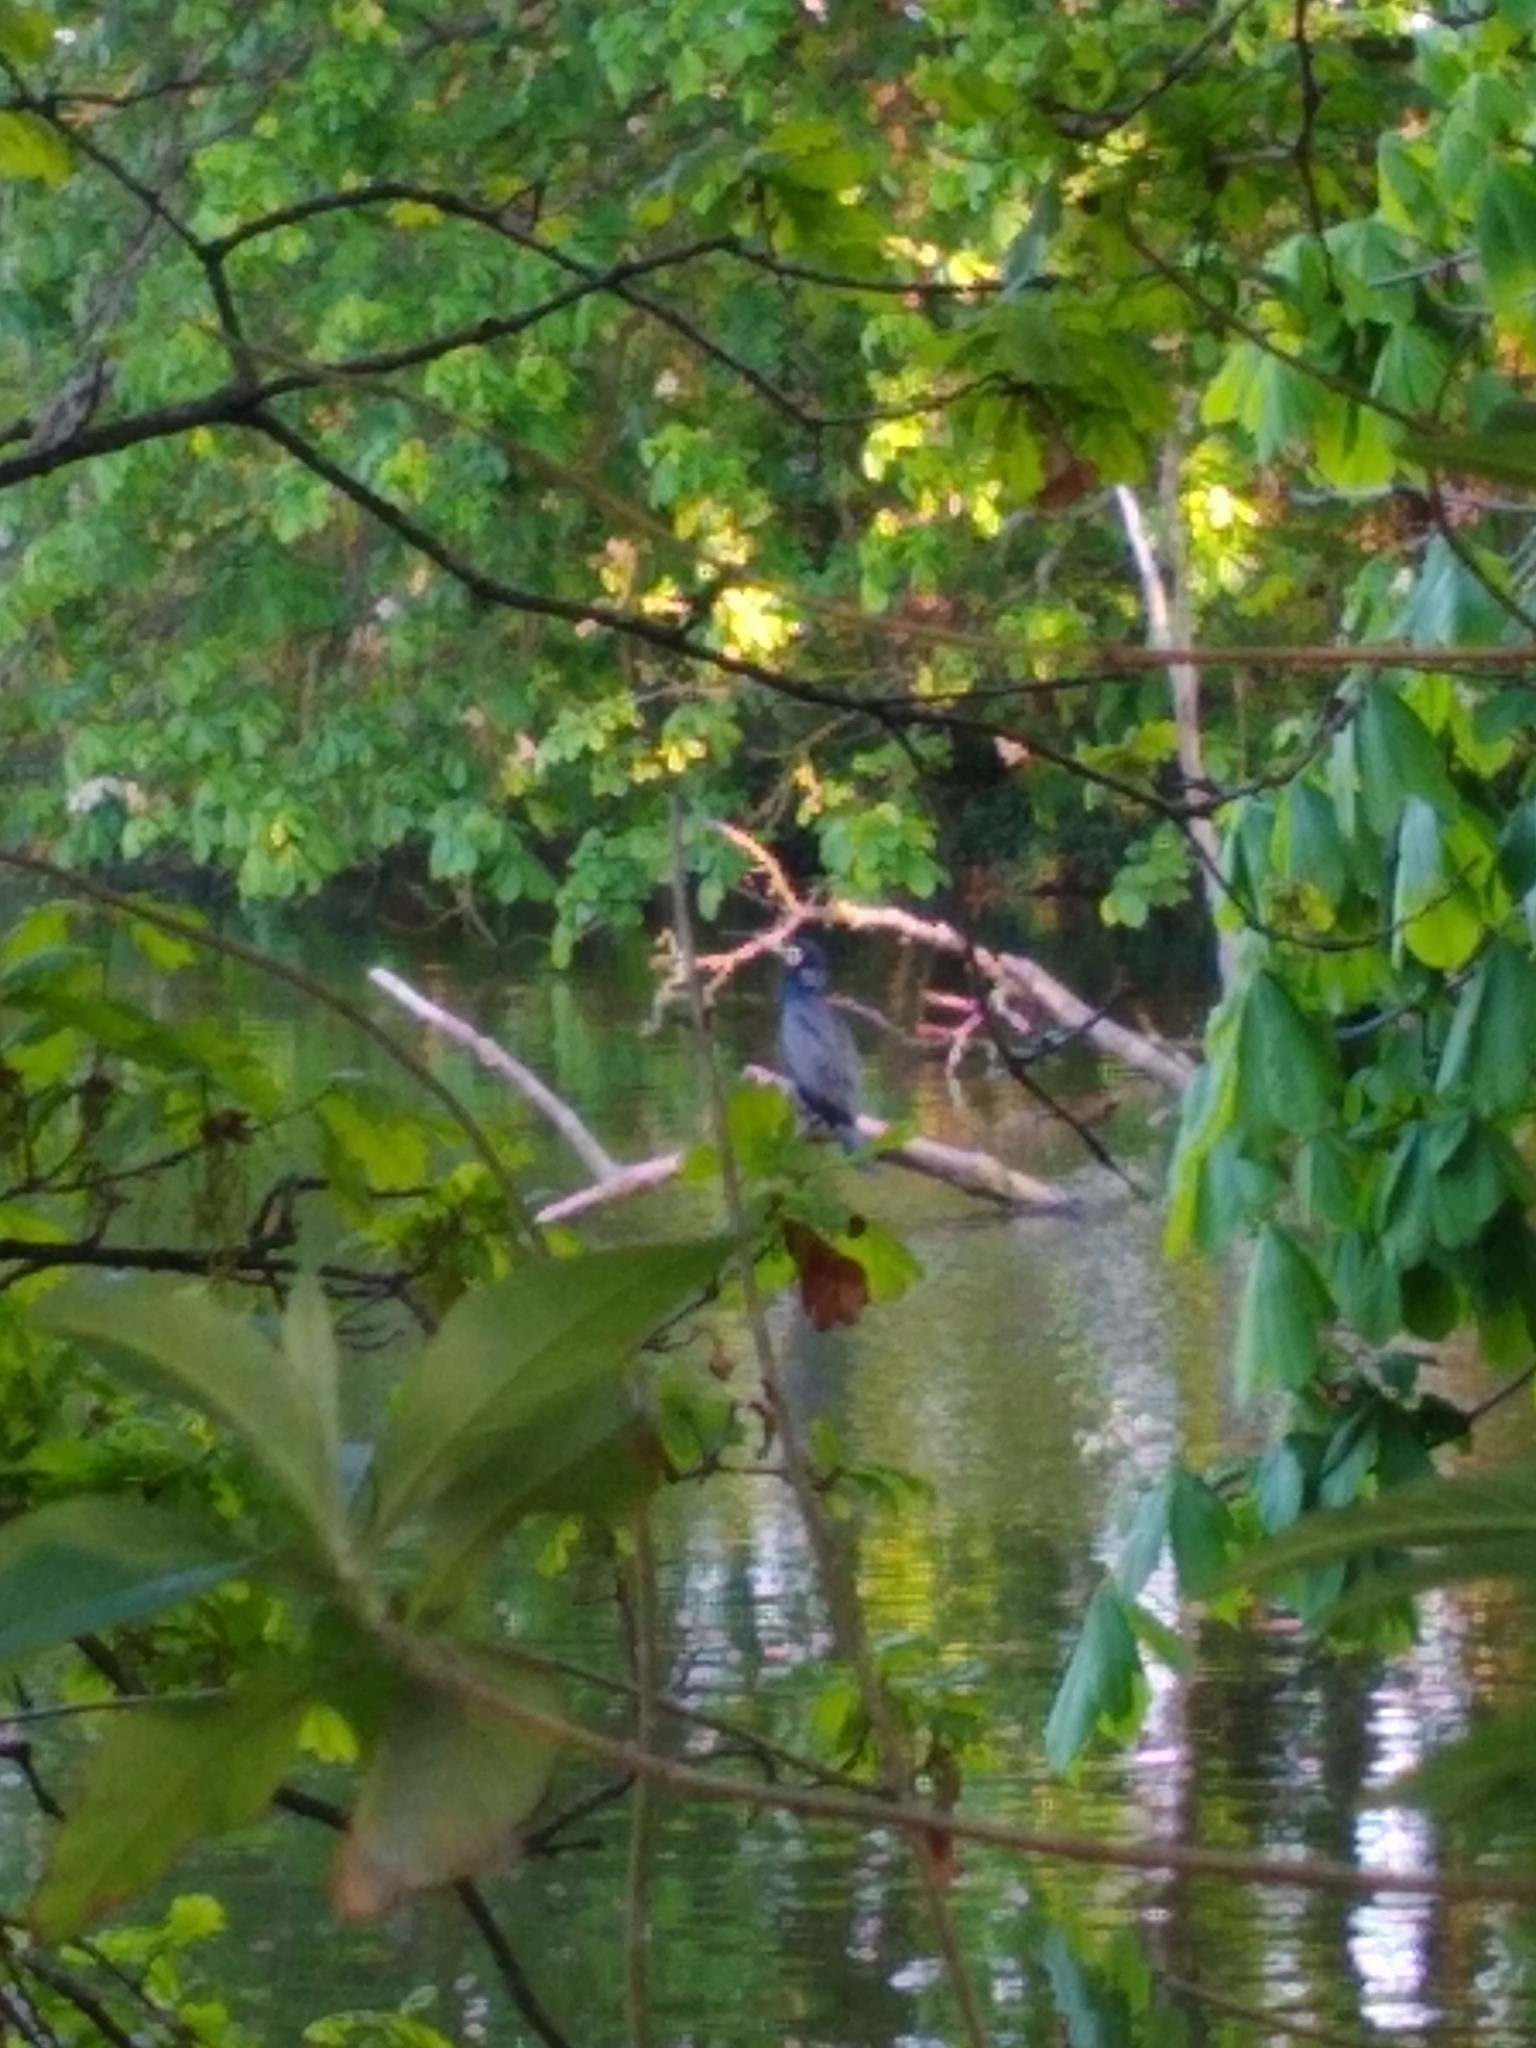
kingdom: Animalia
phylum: Chordata
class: Aves
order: Suliformes
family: Phalacrocoracidae
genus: Phalacrocorax
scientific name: Phalacrocorax carbo
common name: Great cormorant
